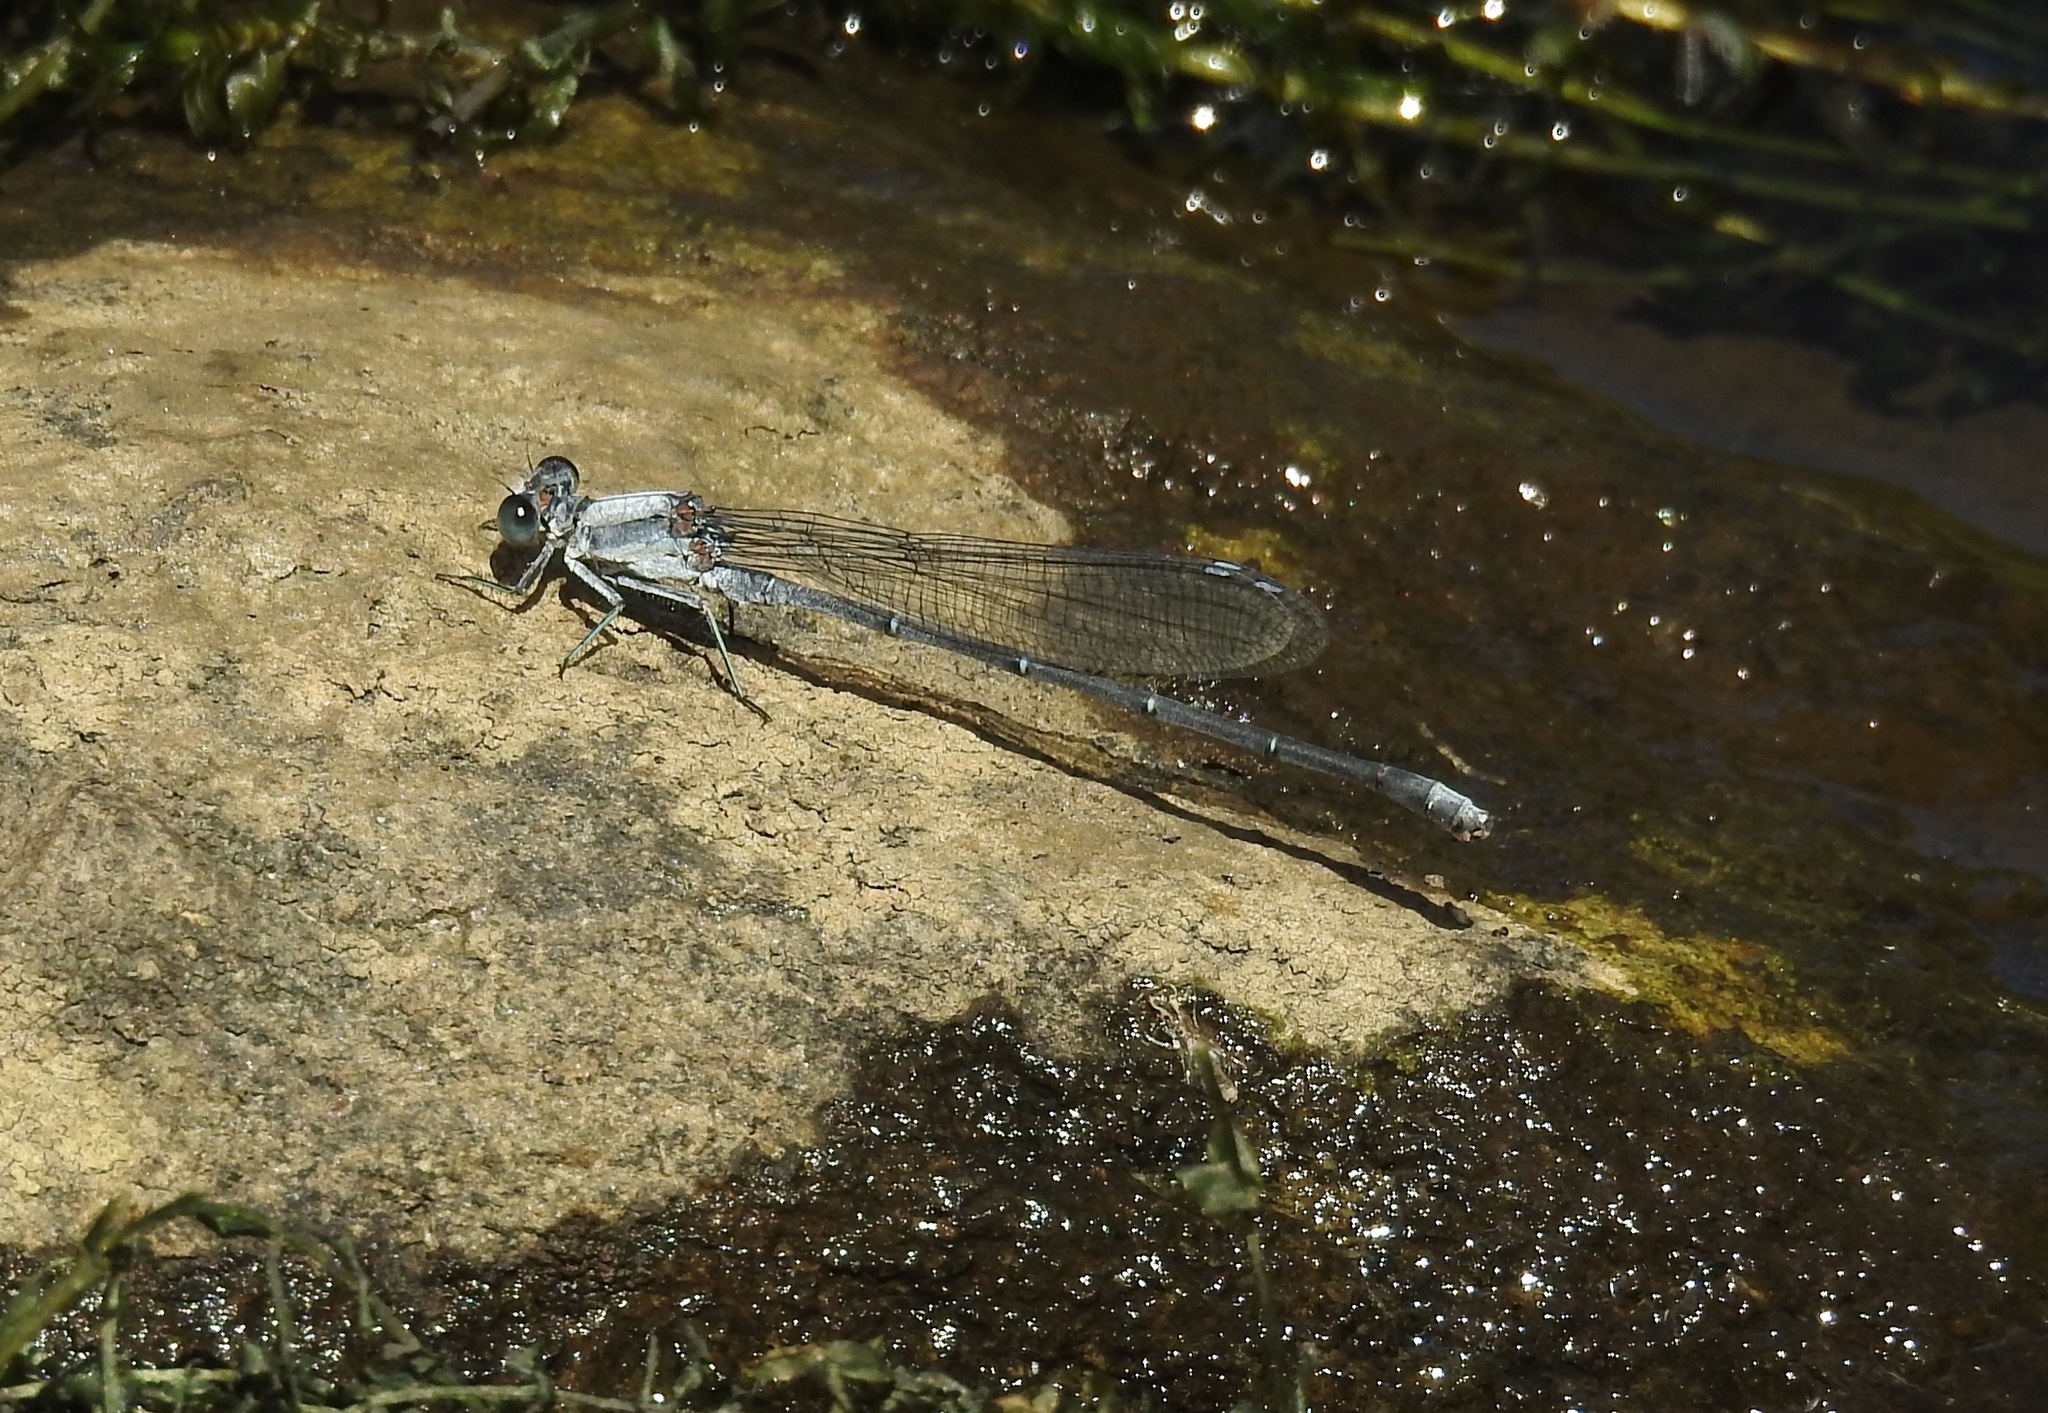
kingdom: Animalia
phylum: Arthropoda
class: Insecta
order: Odonata
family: Coenagrionidae
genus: Argia
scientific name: Argia moesta
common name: Powdered dancer
